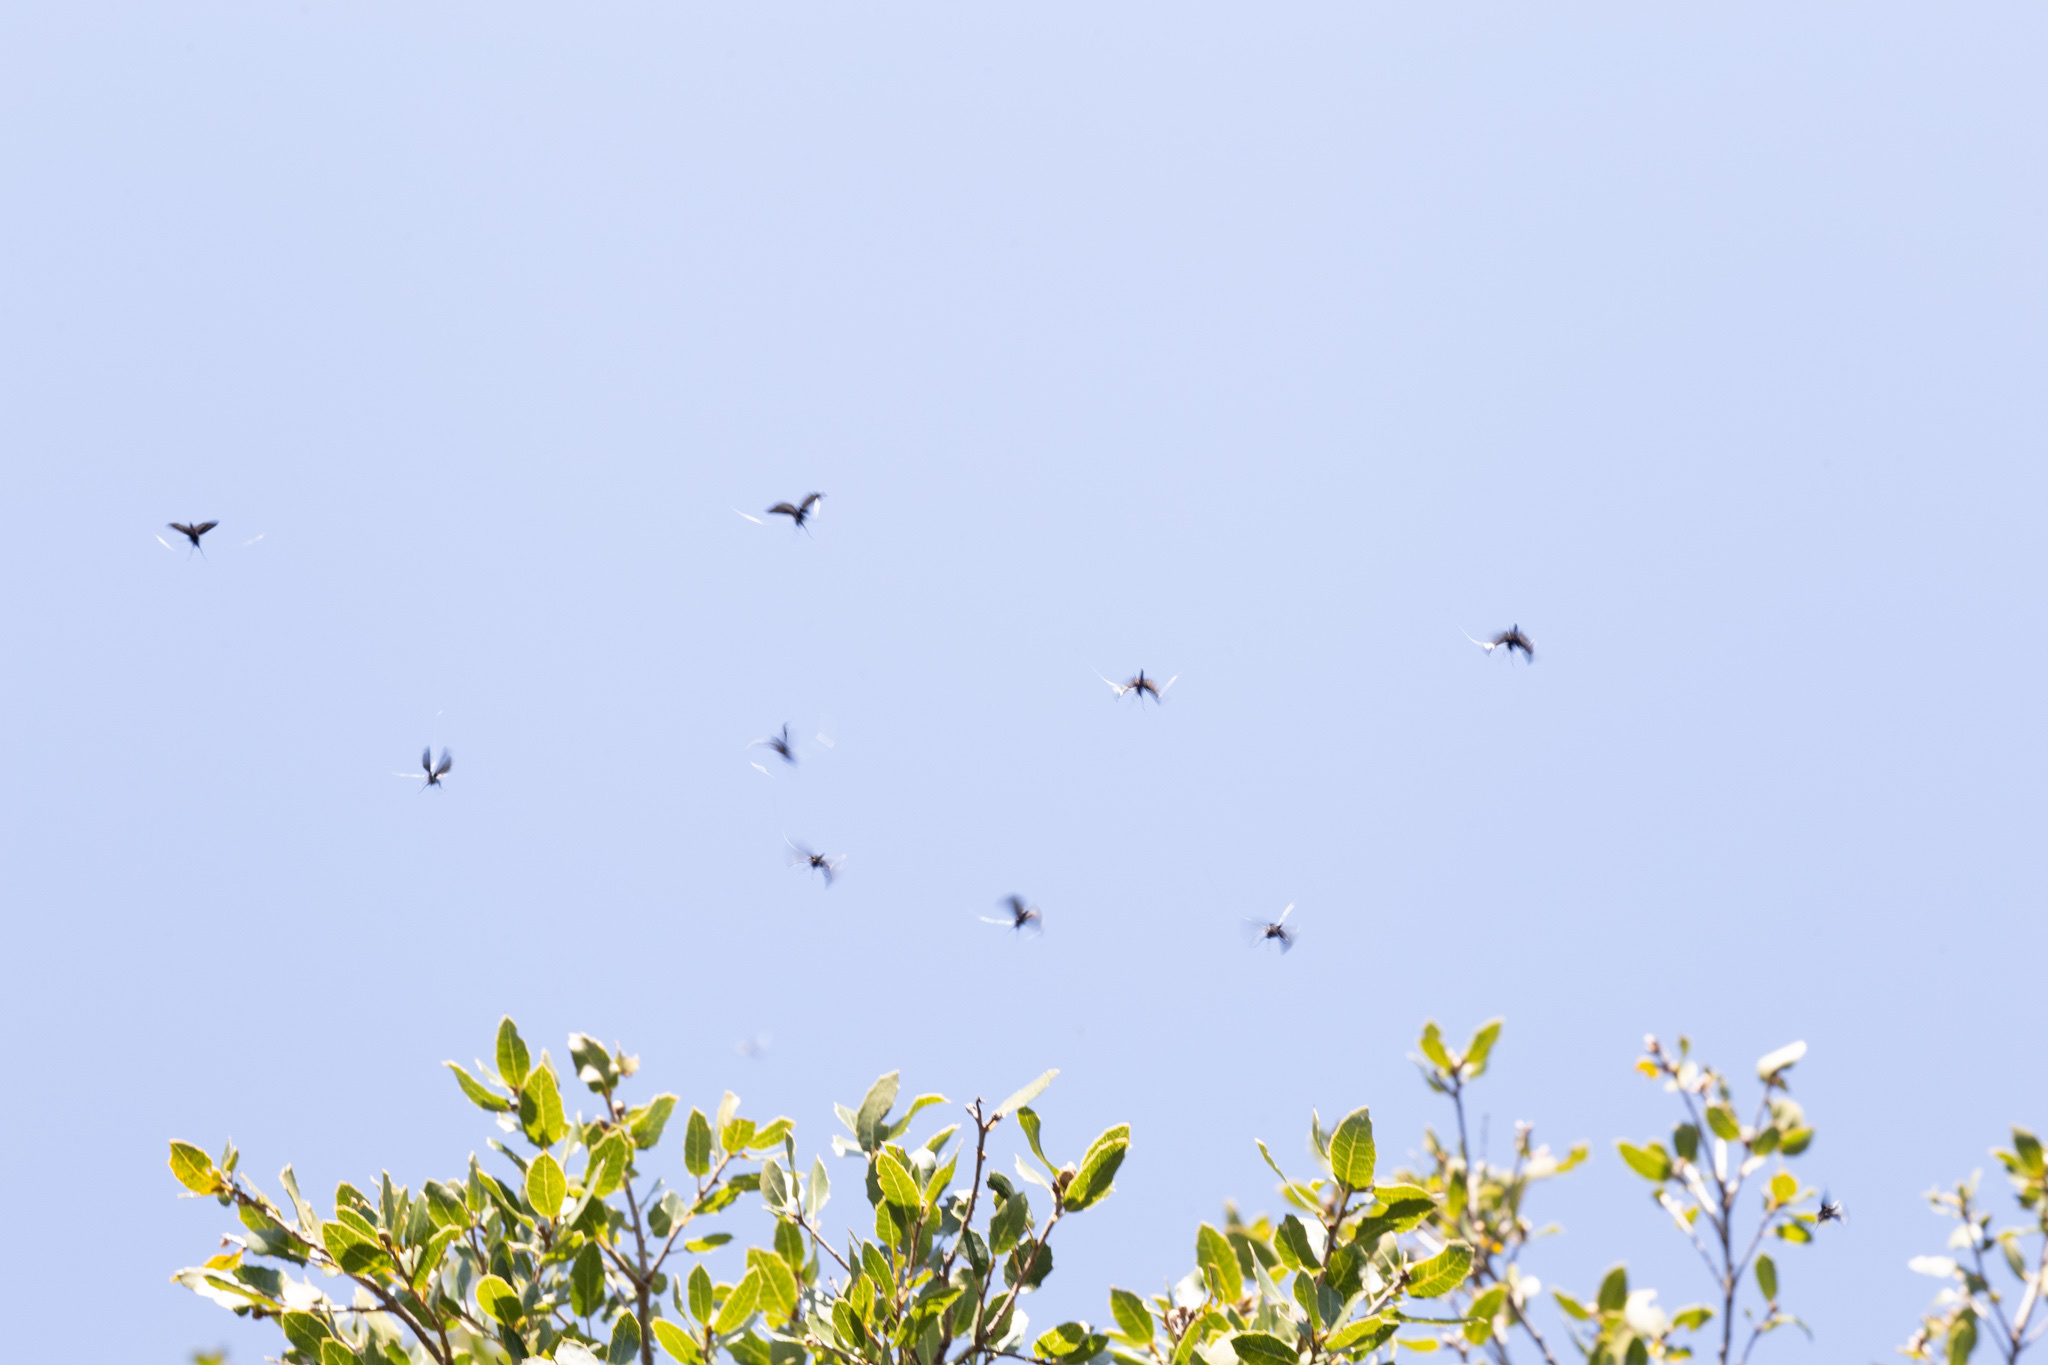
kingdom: Animalia
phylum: Arthropoda
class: Insecta
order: Lepidoptera
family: Adelidae
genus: Adela
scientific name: Adela viridella
